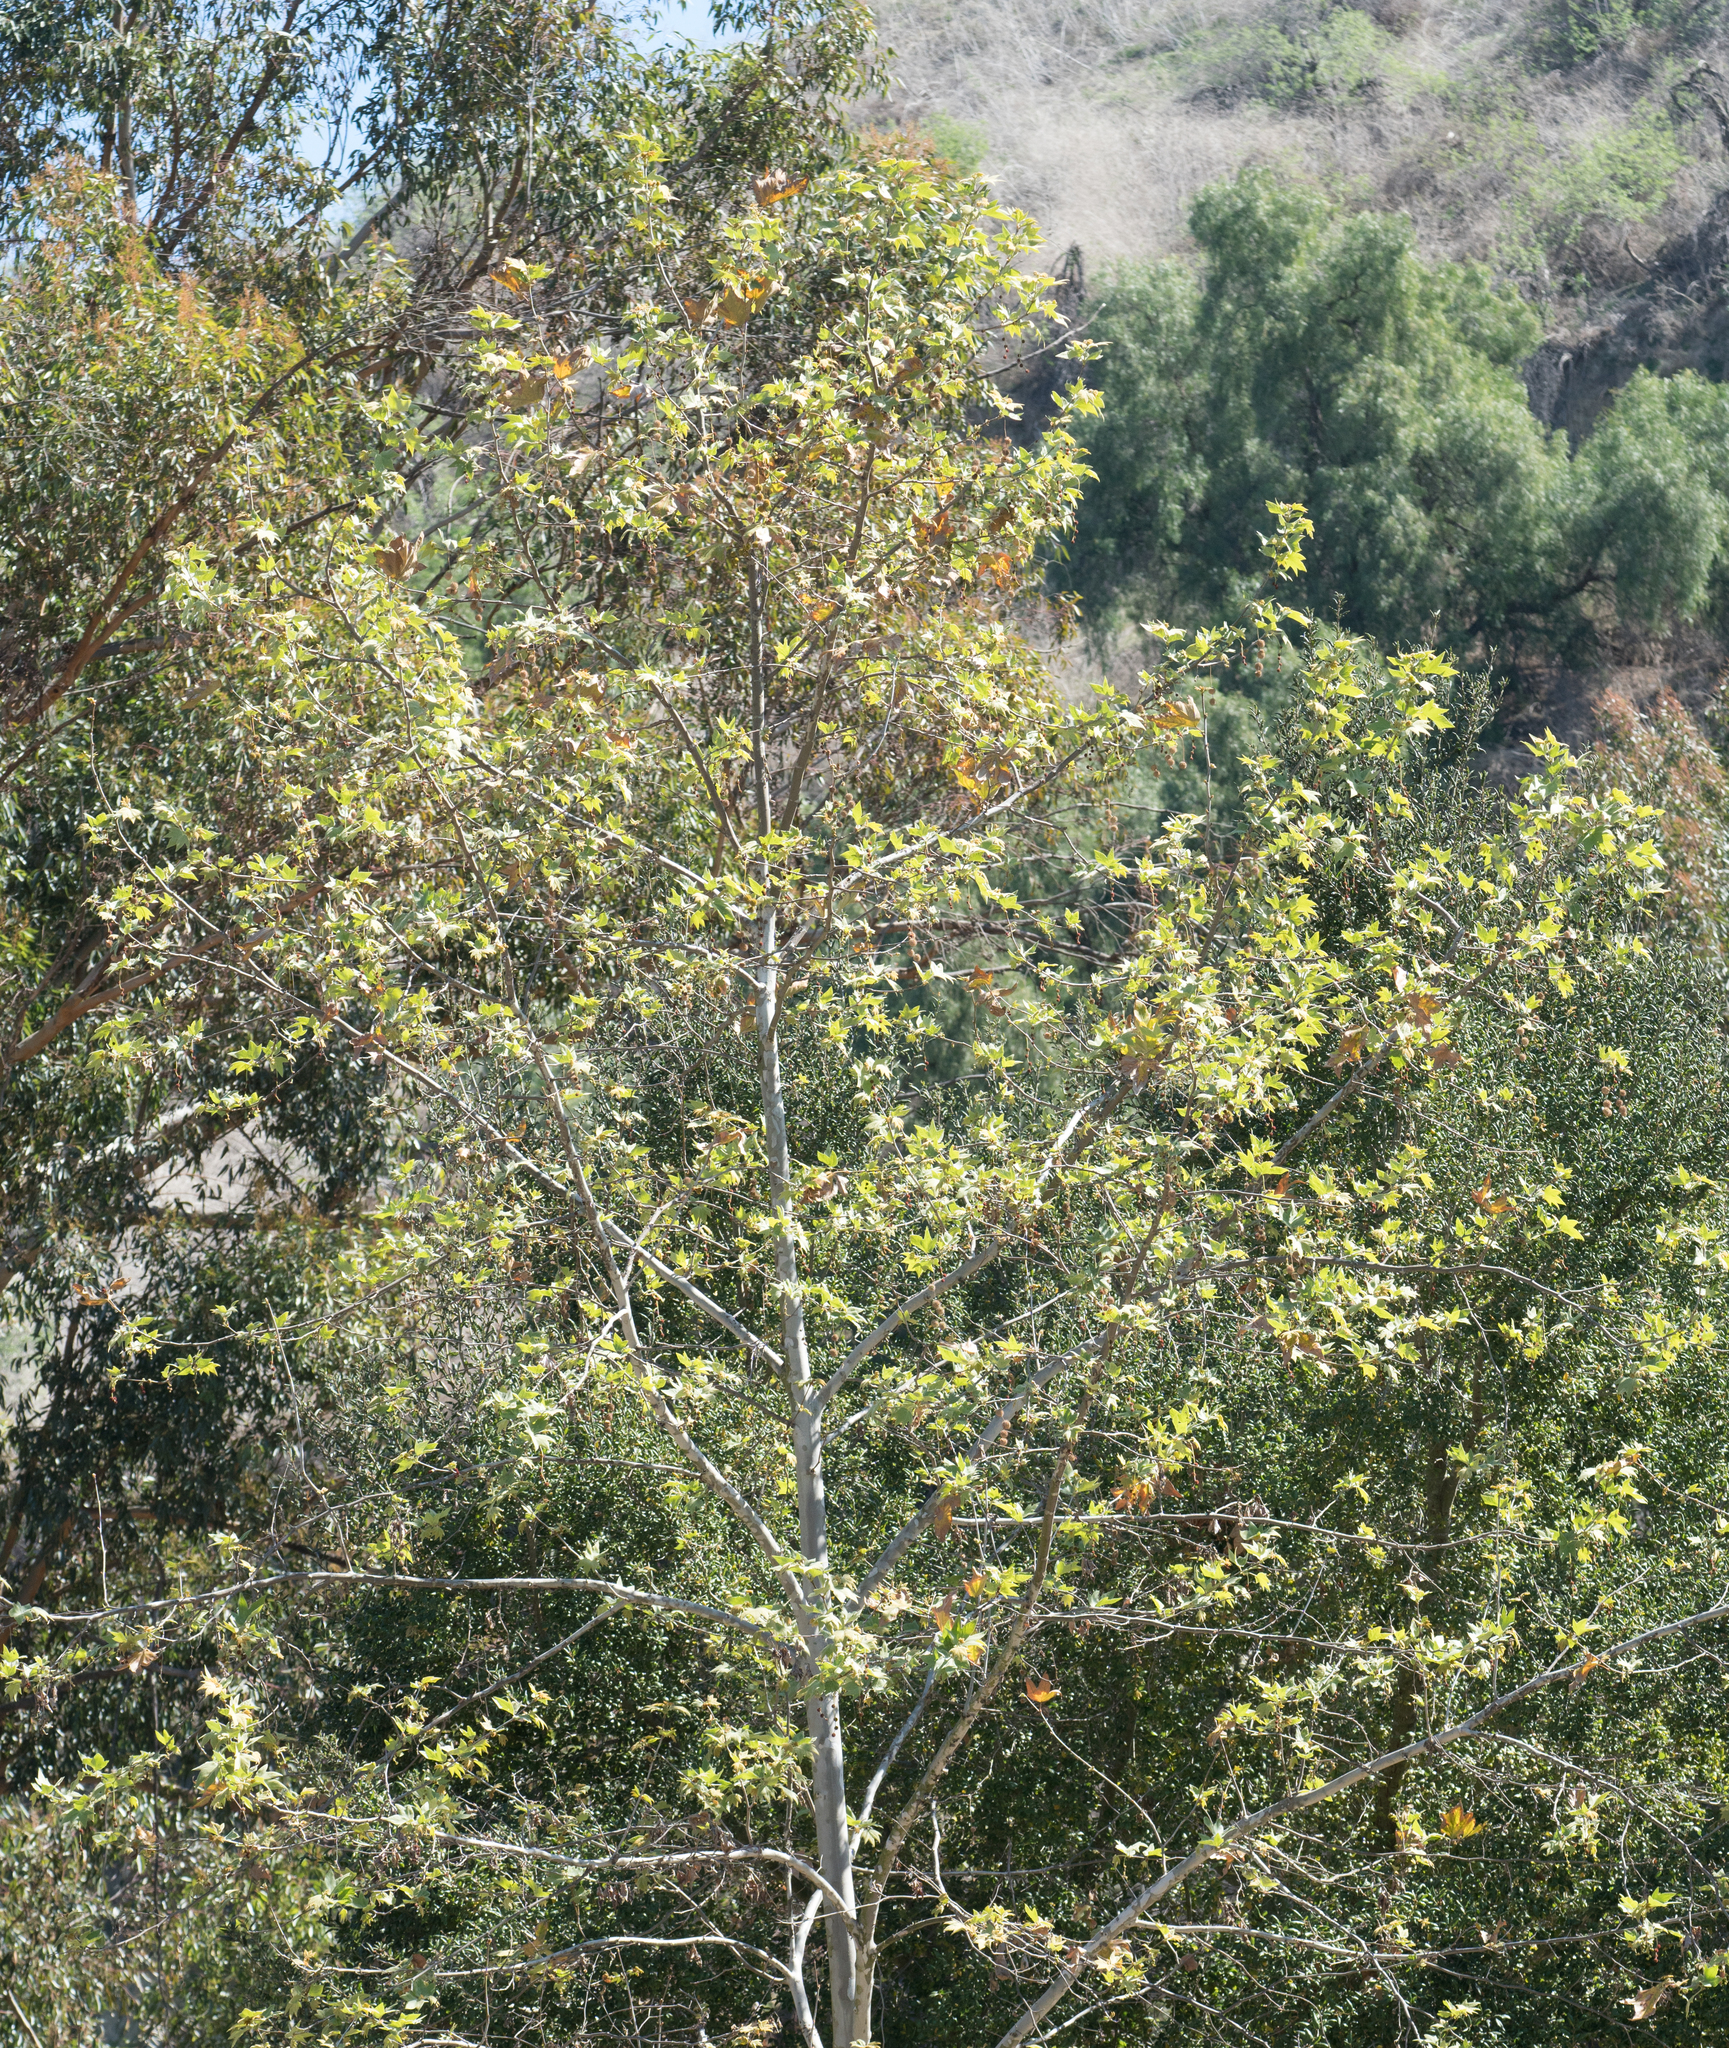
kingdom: Plantae
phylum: Tracheophyta
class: Magnoliopsida
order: Proteales
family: Platanaceae
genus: Platanus
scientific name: Platanus racemosa
